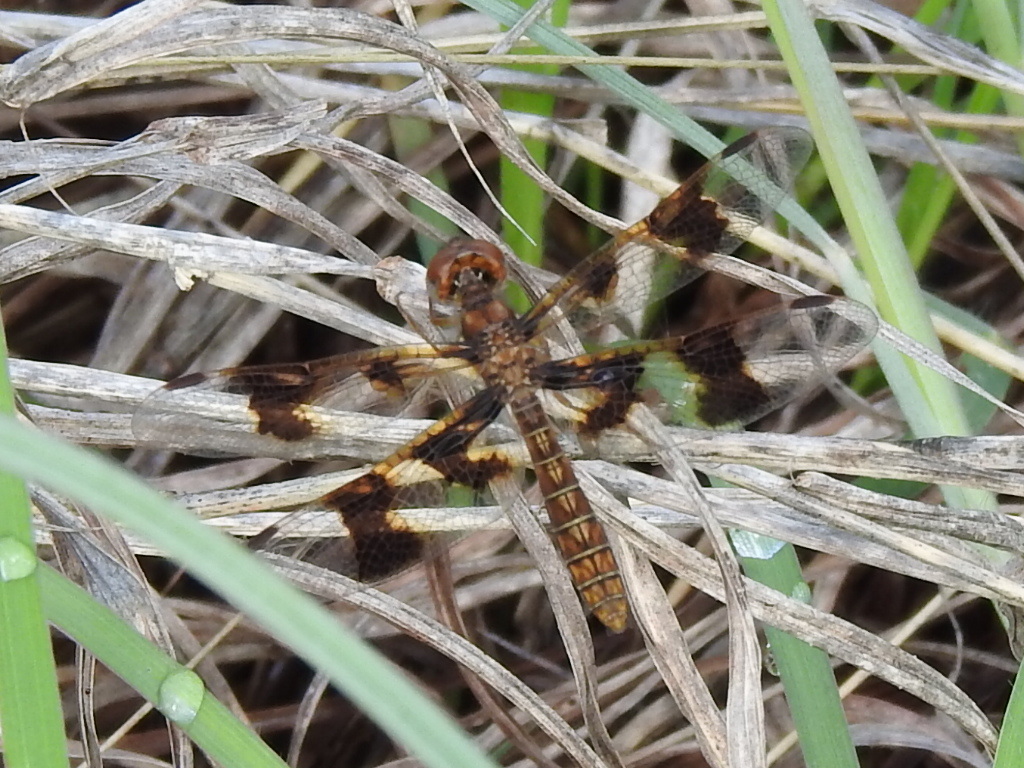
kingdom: Animalia
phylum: Arthropoda
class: Insecta
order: Odonata
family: Libellulidae
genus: Perithemis
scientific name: Perithemis tenera
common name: Eastern amberwing
